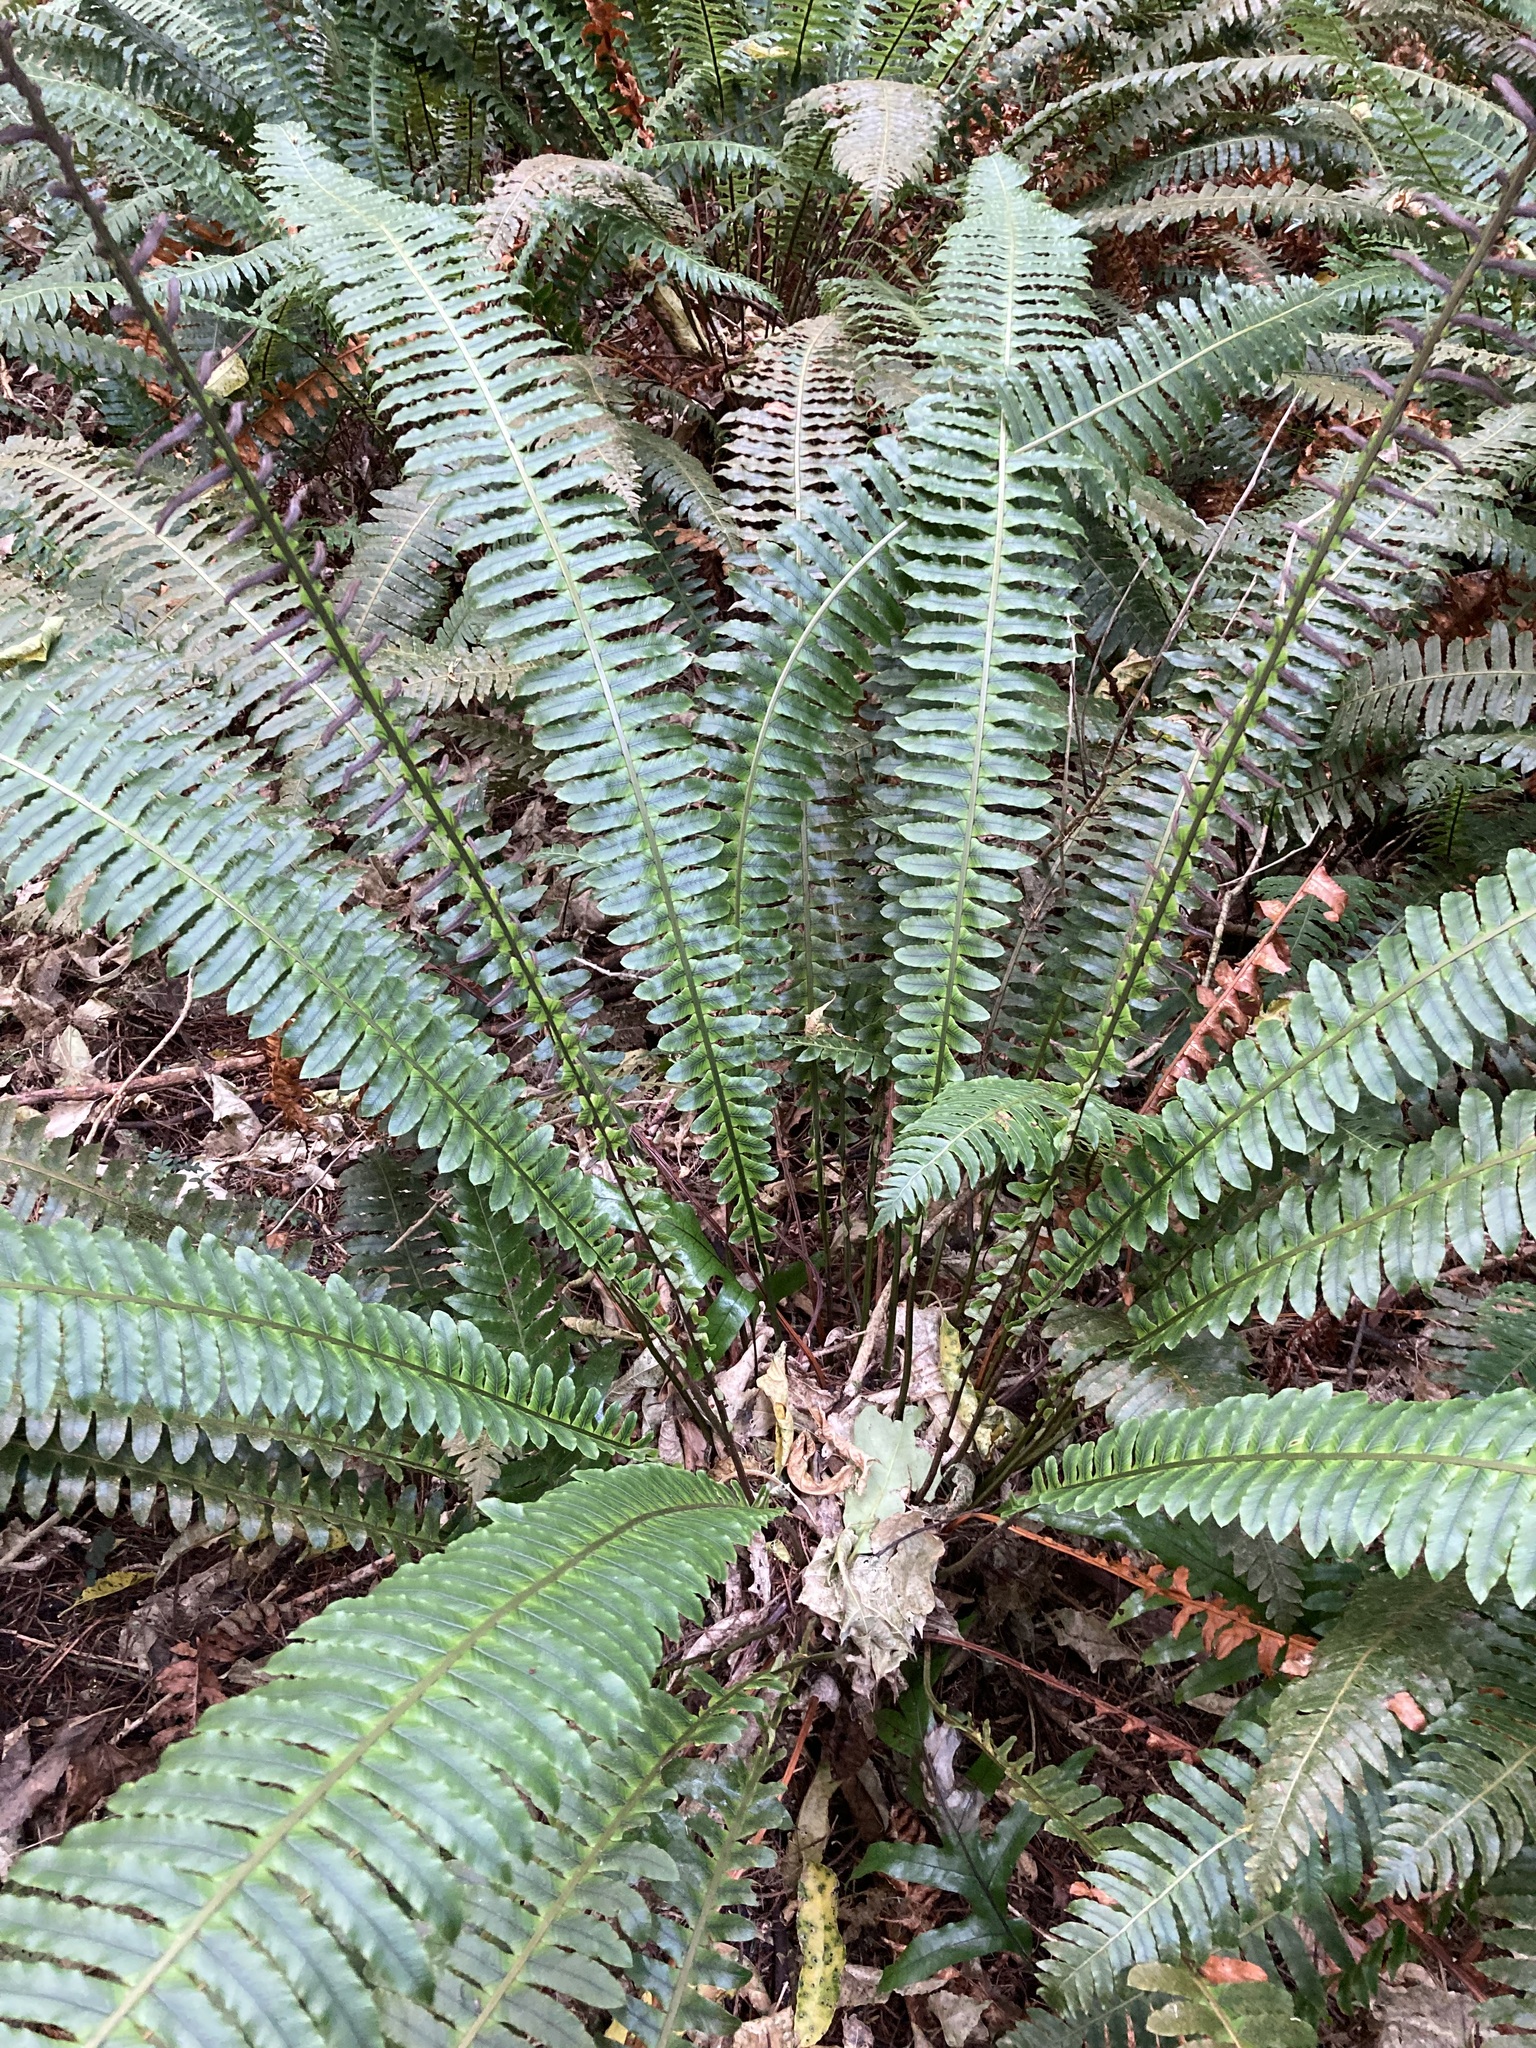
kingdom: Plantae
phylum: Tracheophyta
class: Polypodiopsida
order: Polypodiales
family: Blechnaceae
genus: Lomaria
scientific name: Lomaria discolor
